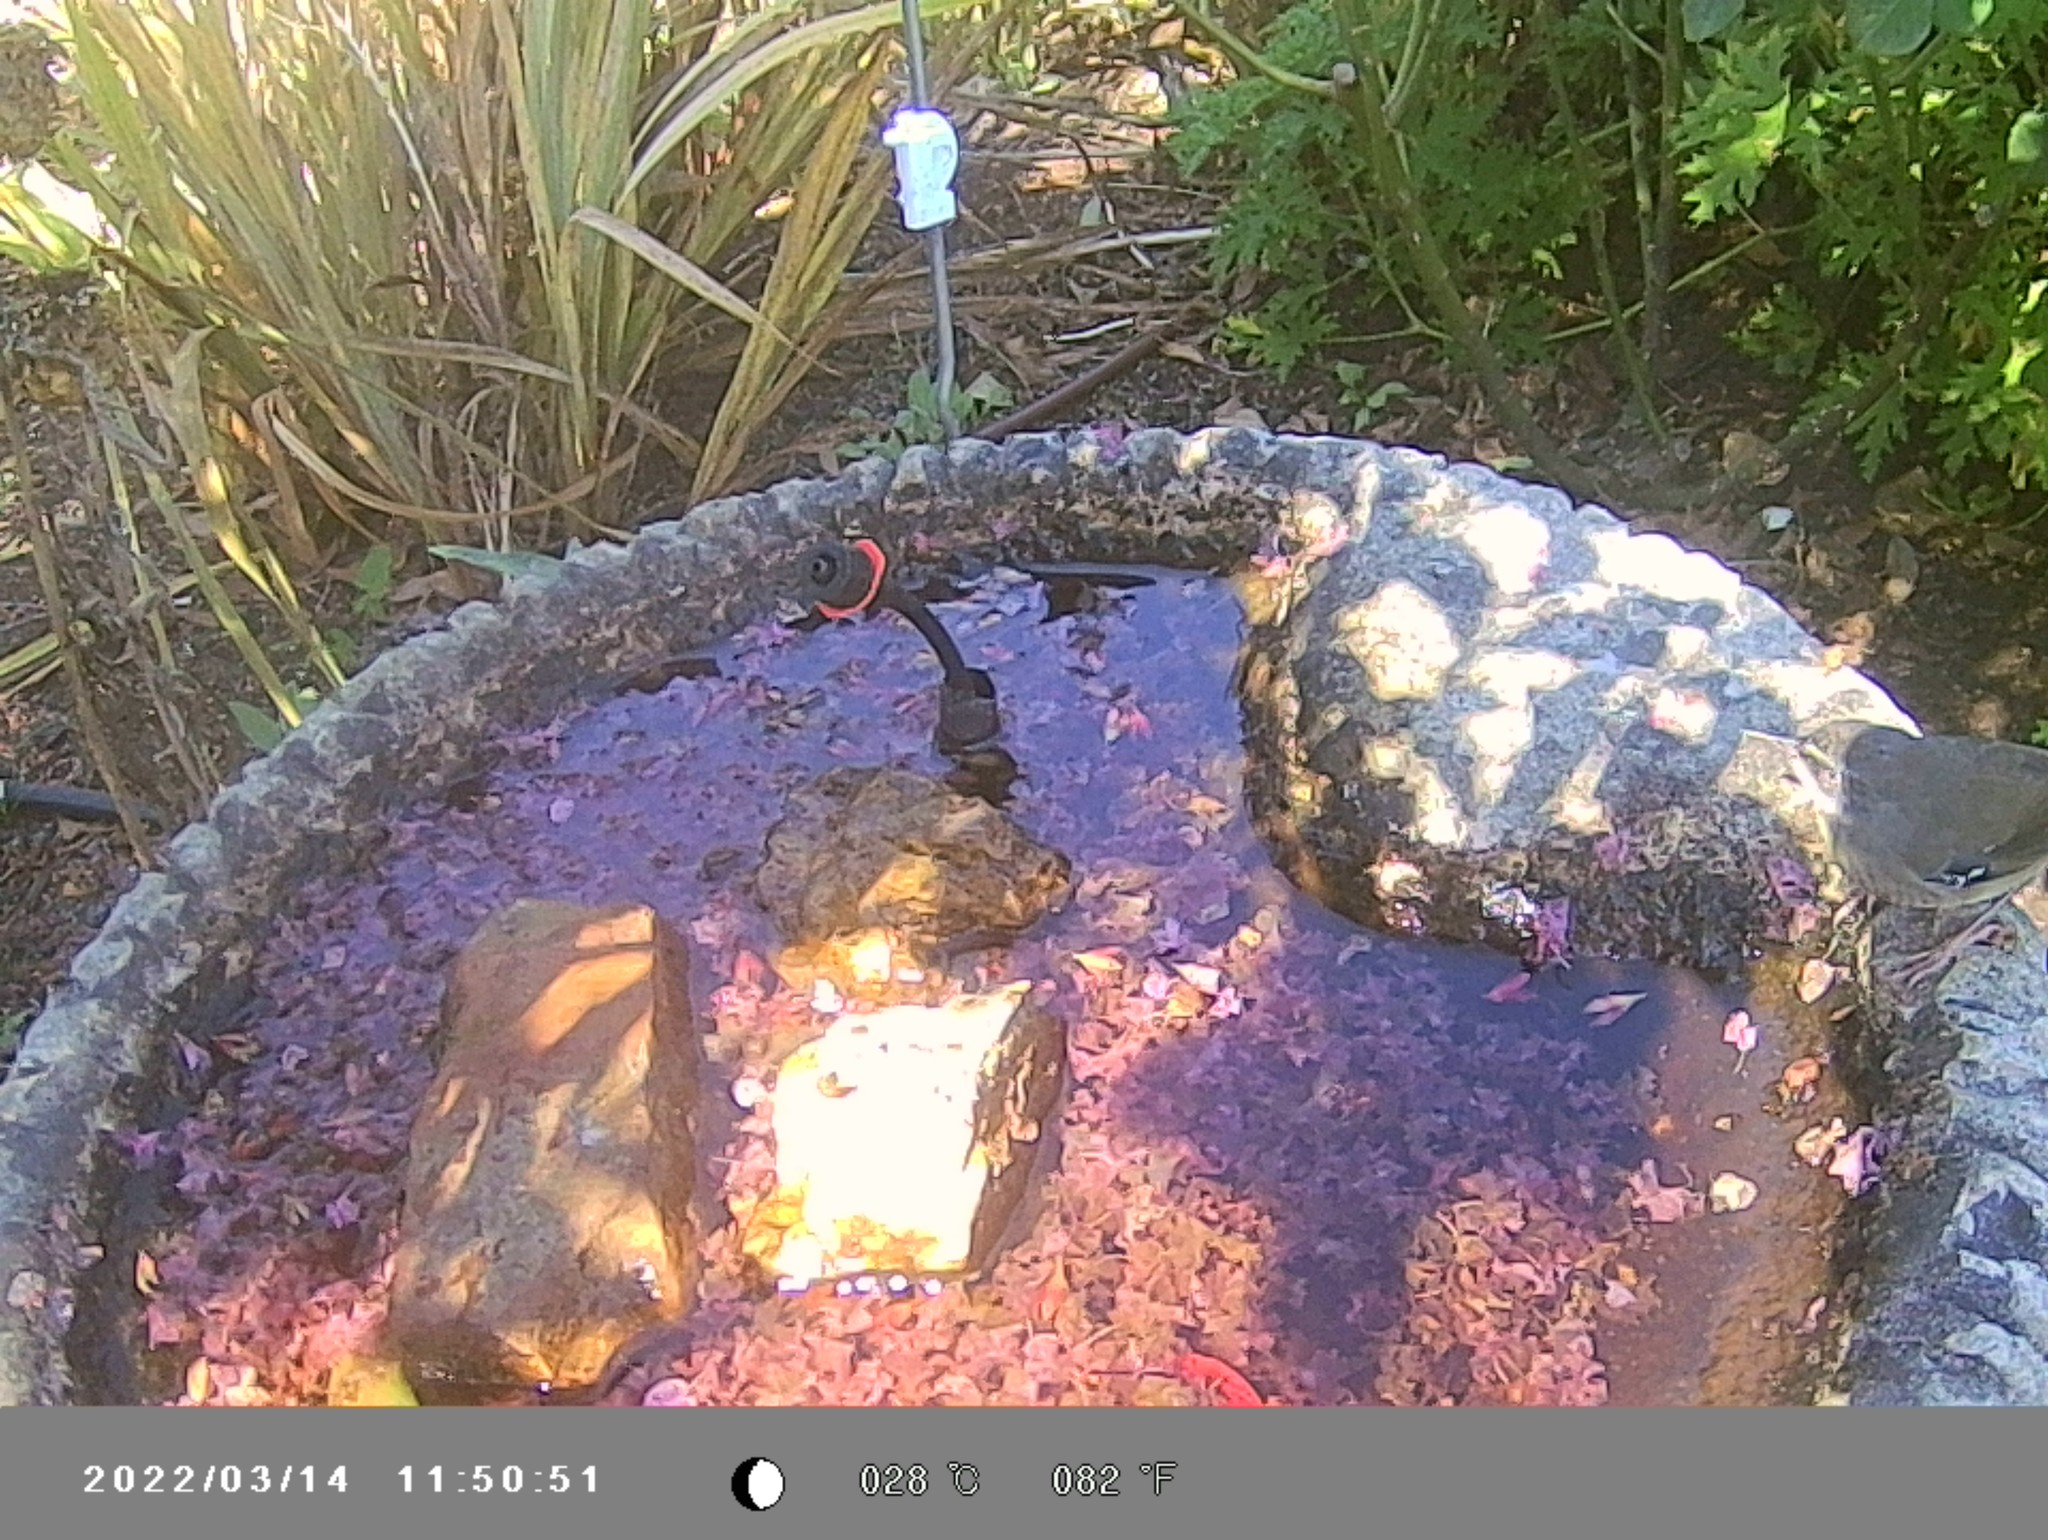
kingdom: Animalia
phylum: Chordata
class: Aves
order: Passeriformes
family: Acanthizidae
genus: Sericornis
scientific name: Sericornis frontalis
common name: White-browed scrubwren
